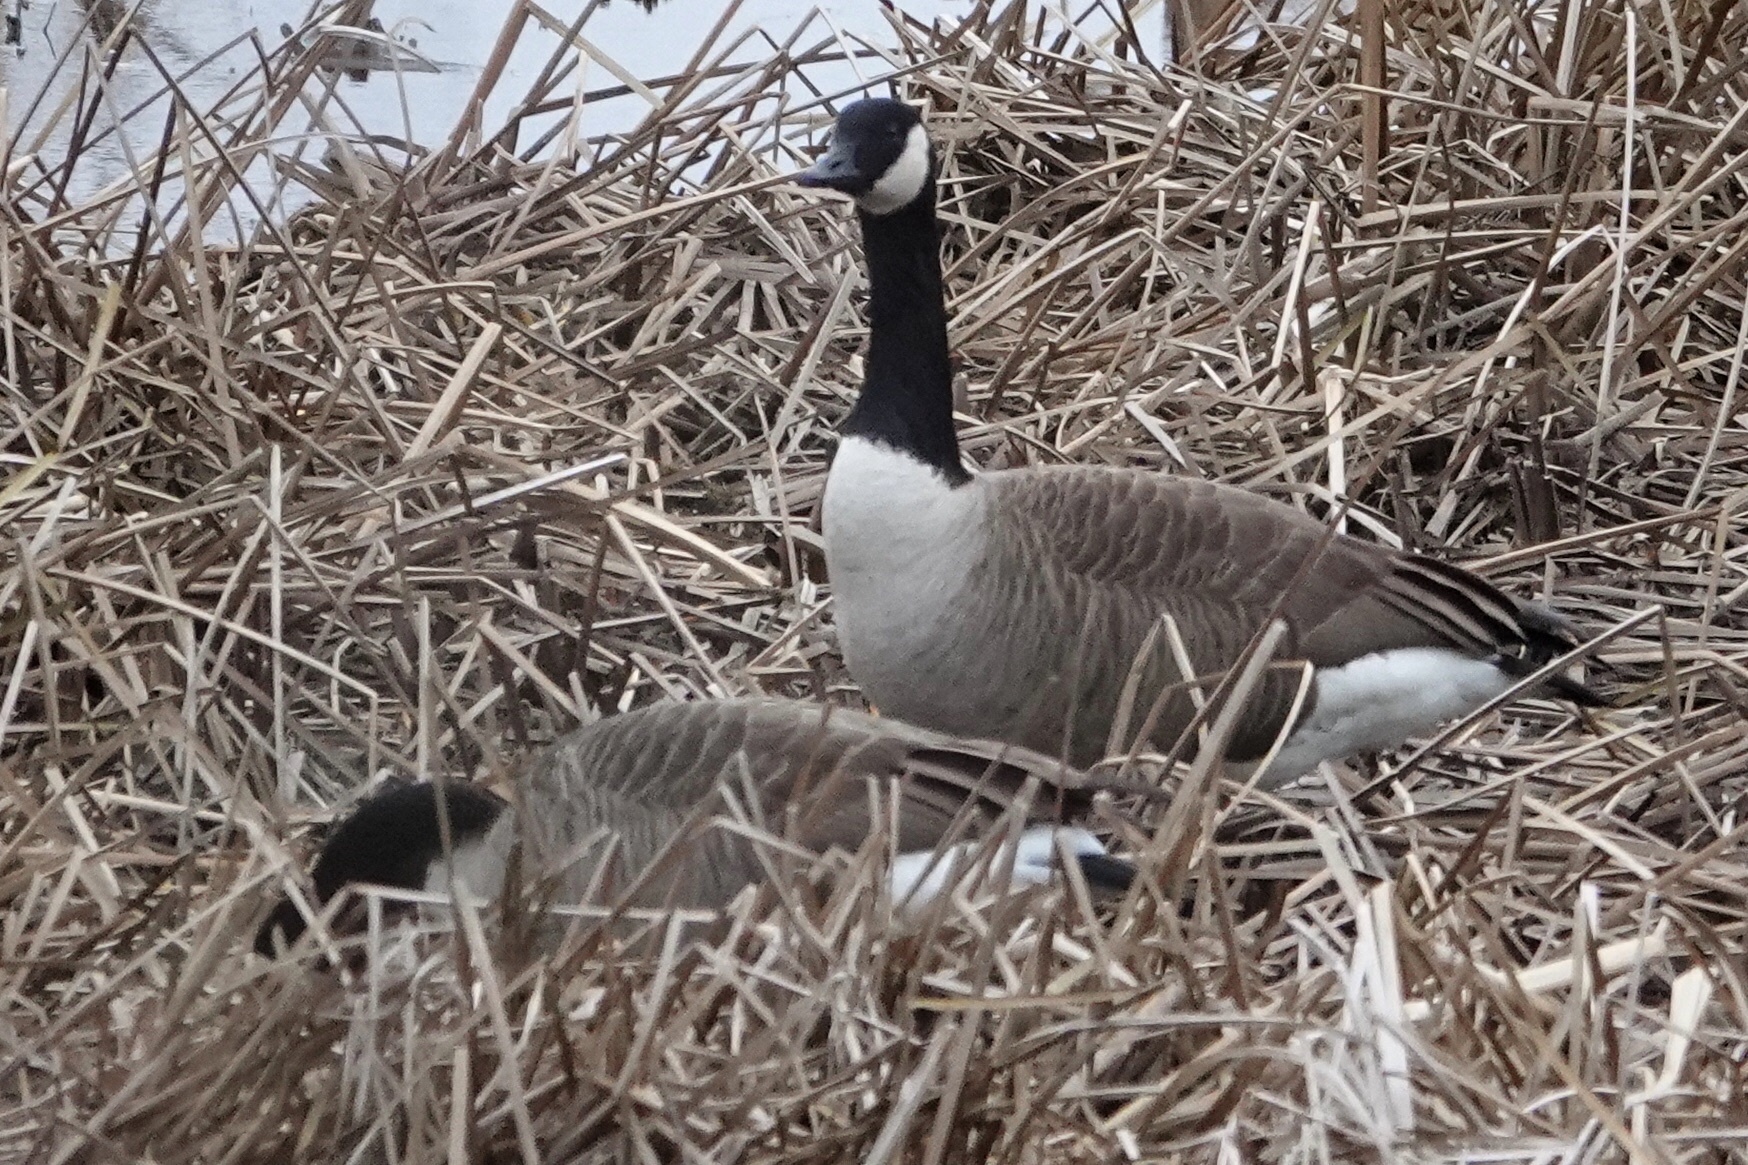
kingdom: Animalia
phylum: Chordata
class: Aves
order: Anseriformes
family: Anatidae
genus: Branta
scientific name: Branta canadensis
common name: Canada goose
